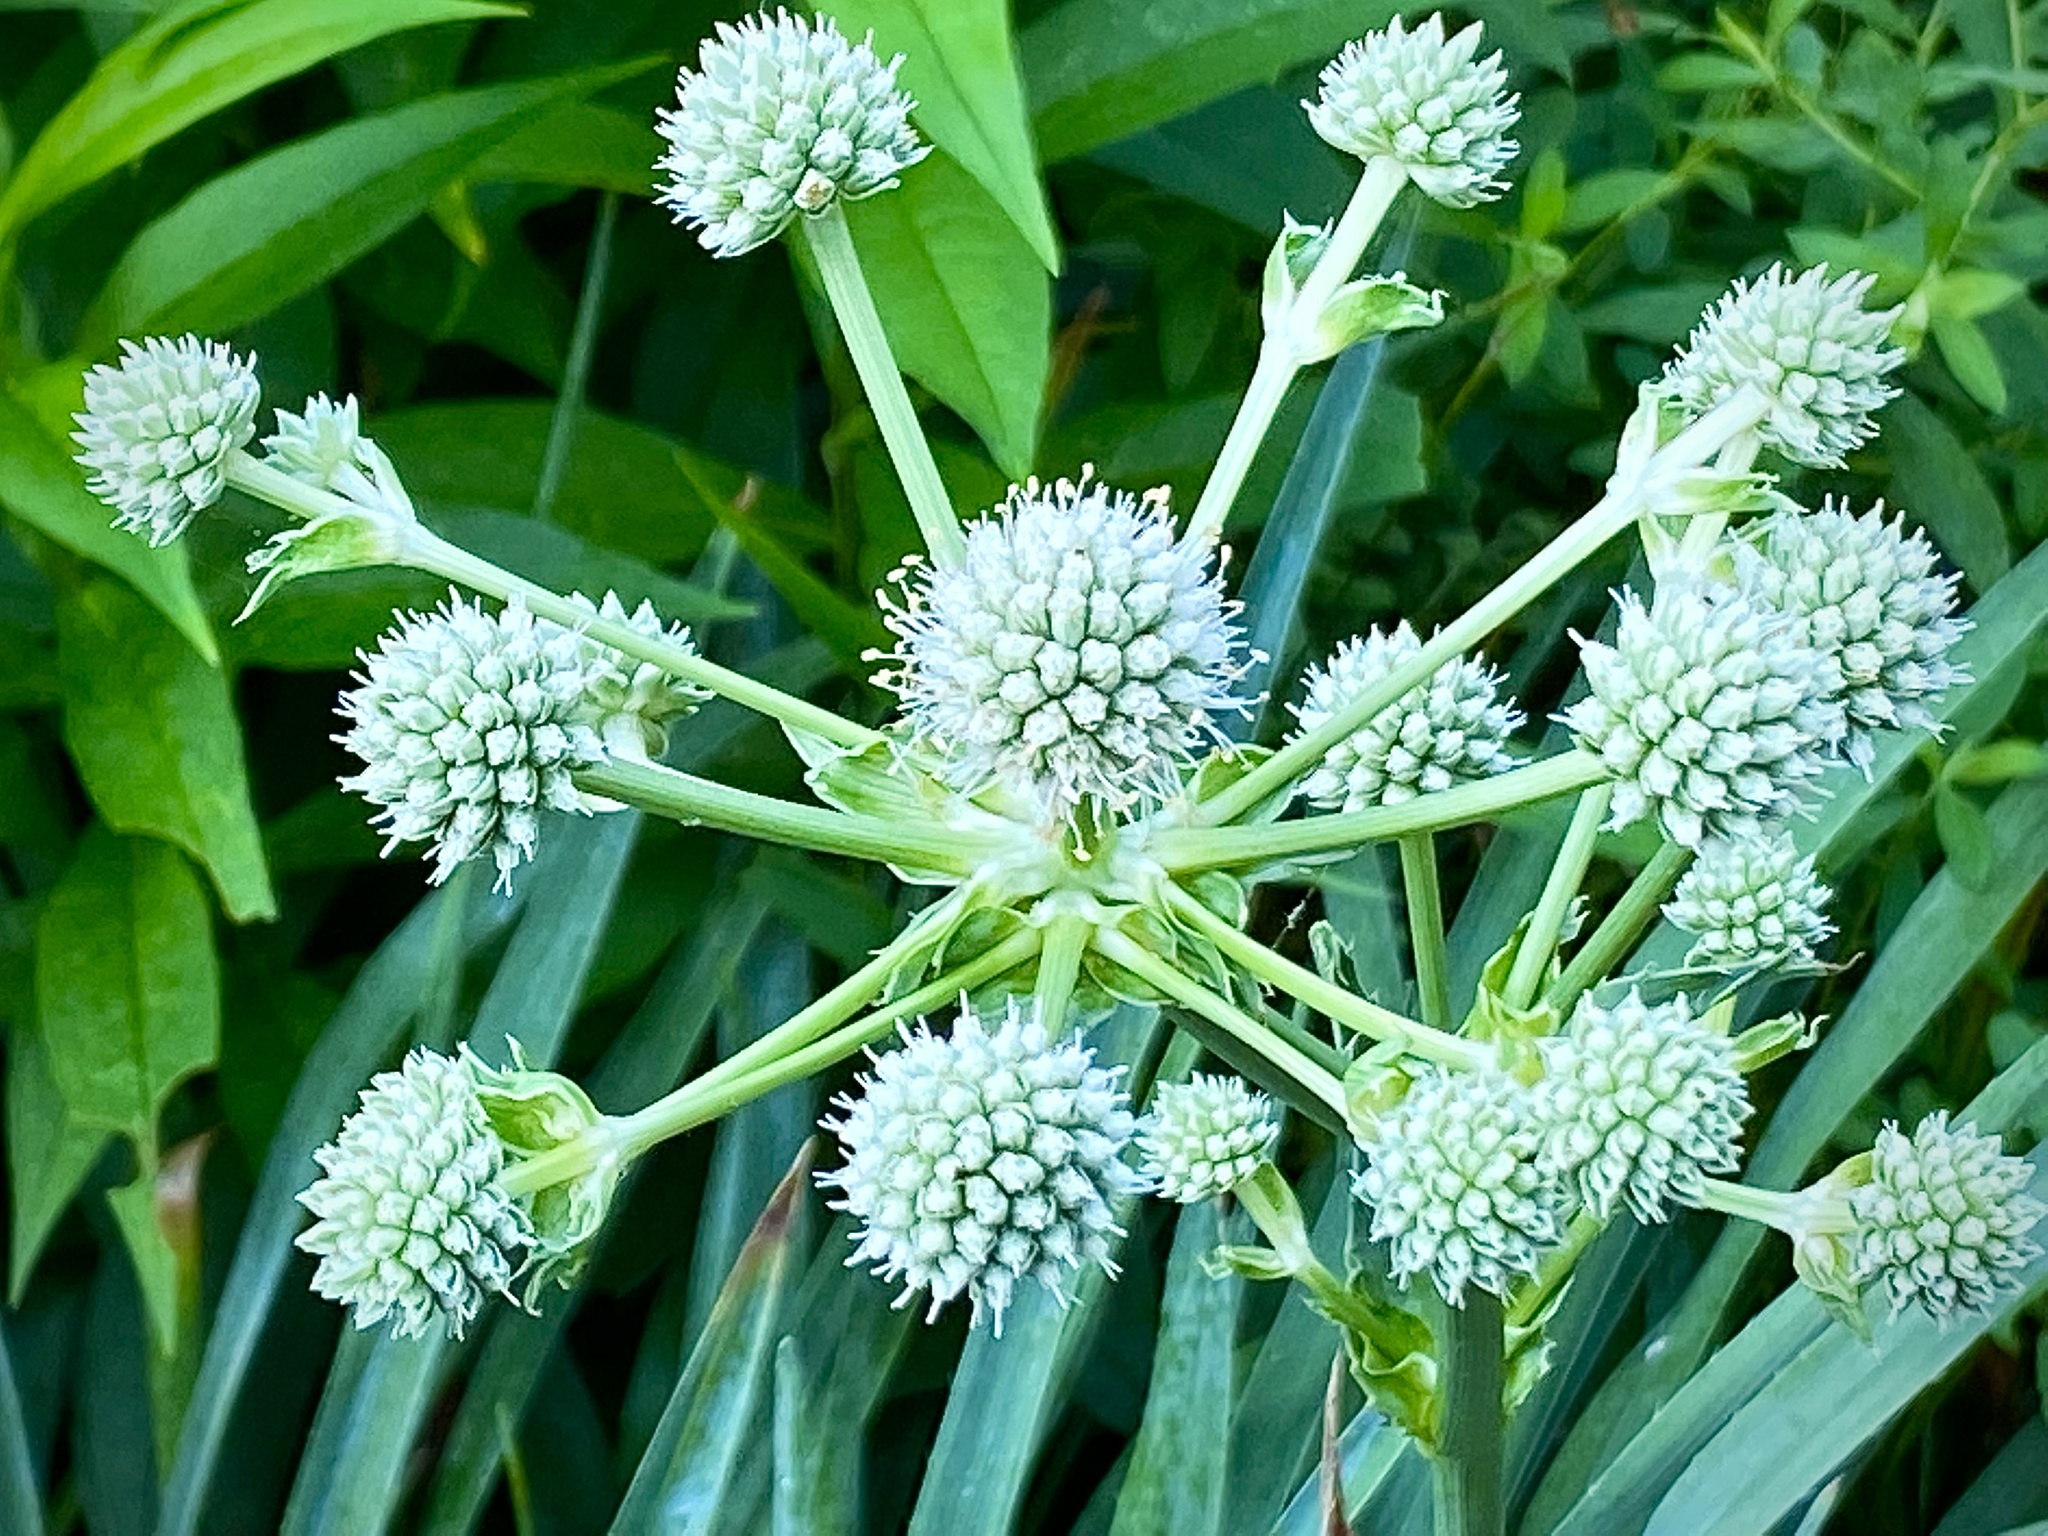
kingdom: Plantae
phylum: Tracheophyta
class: Magnoliopsida
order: Apiales
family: Apiaceae
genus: Eryngium
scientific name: Eryngium yuccifolium
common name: Button eryngo
